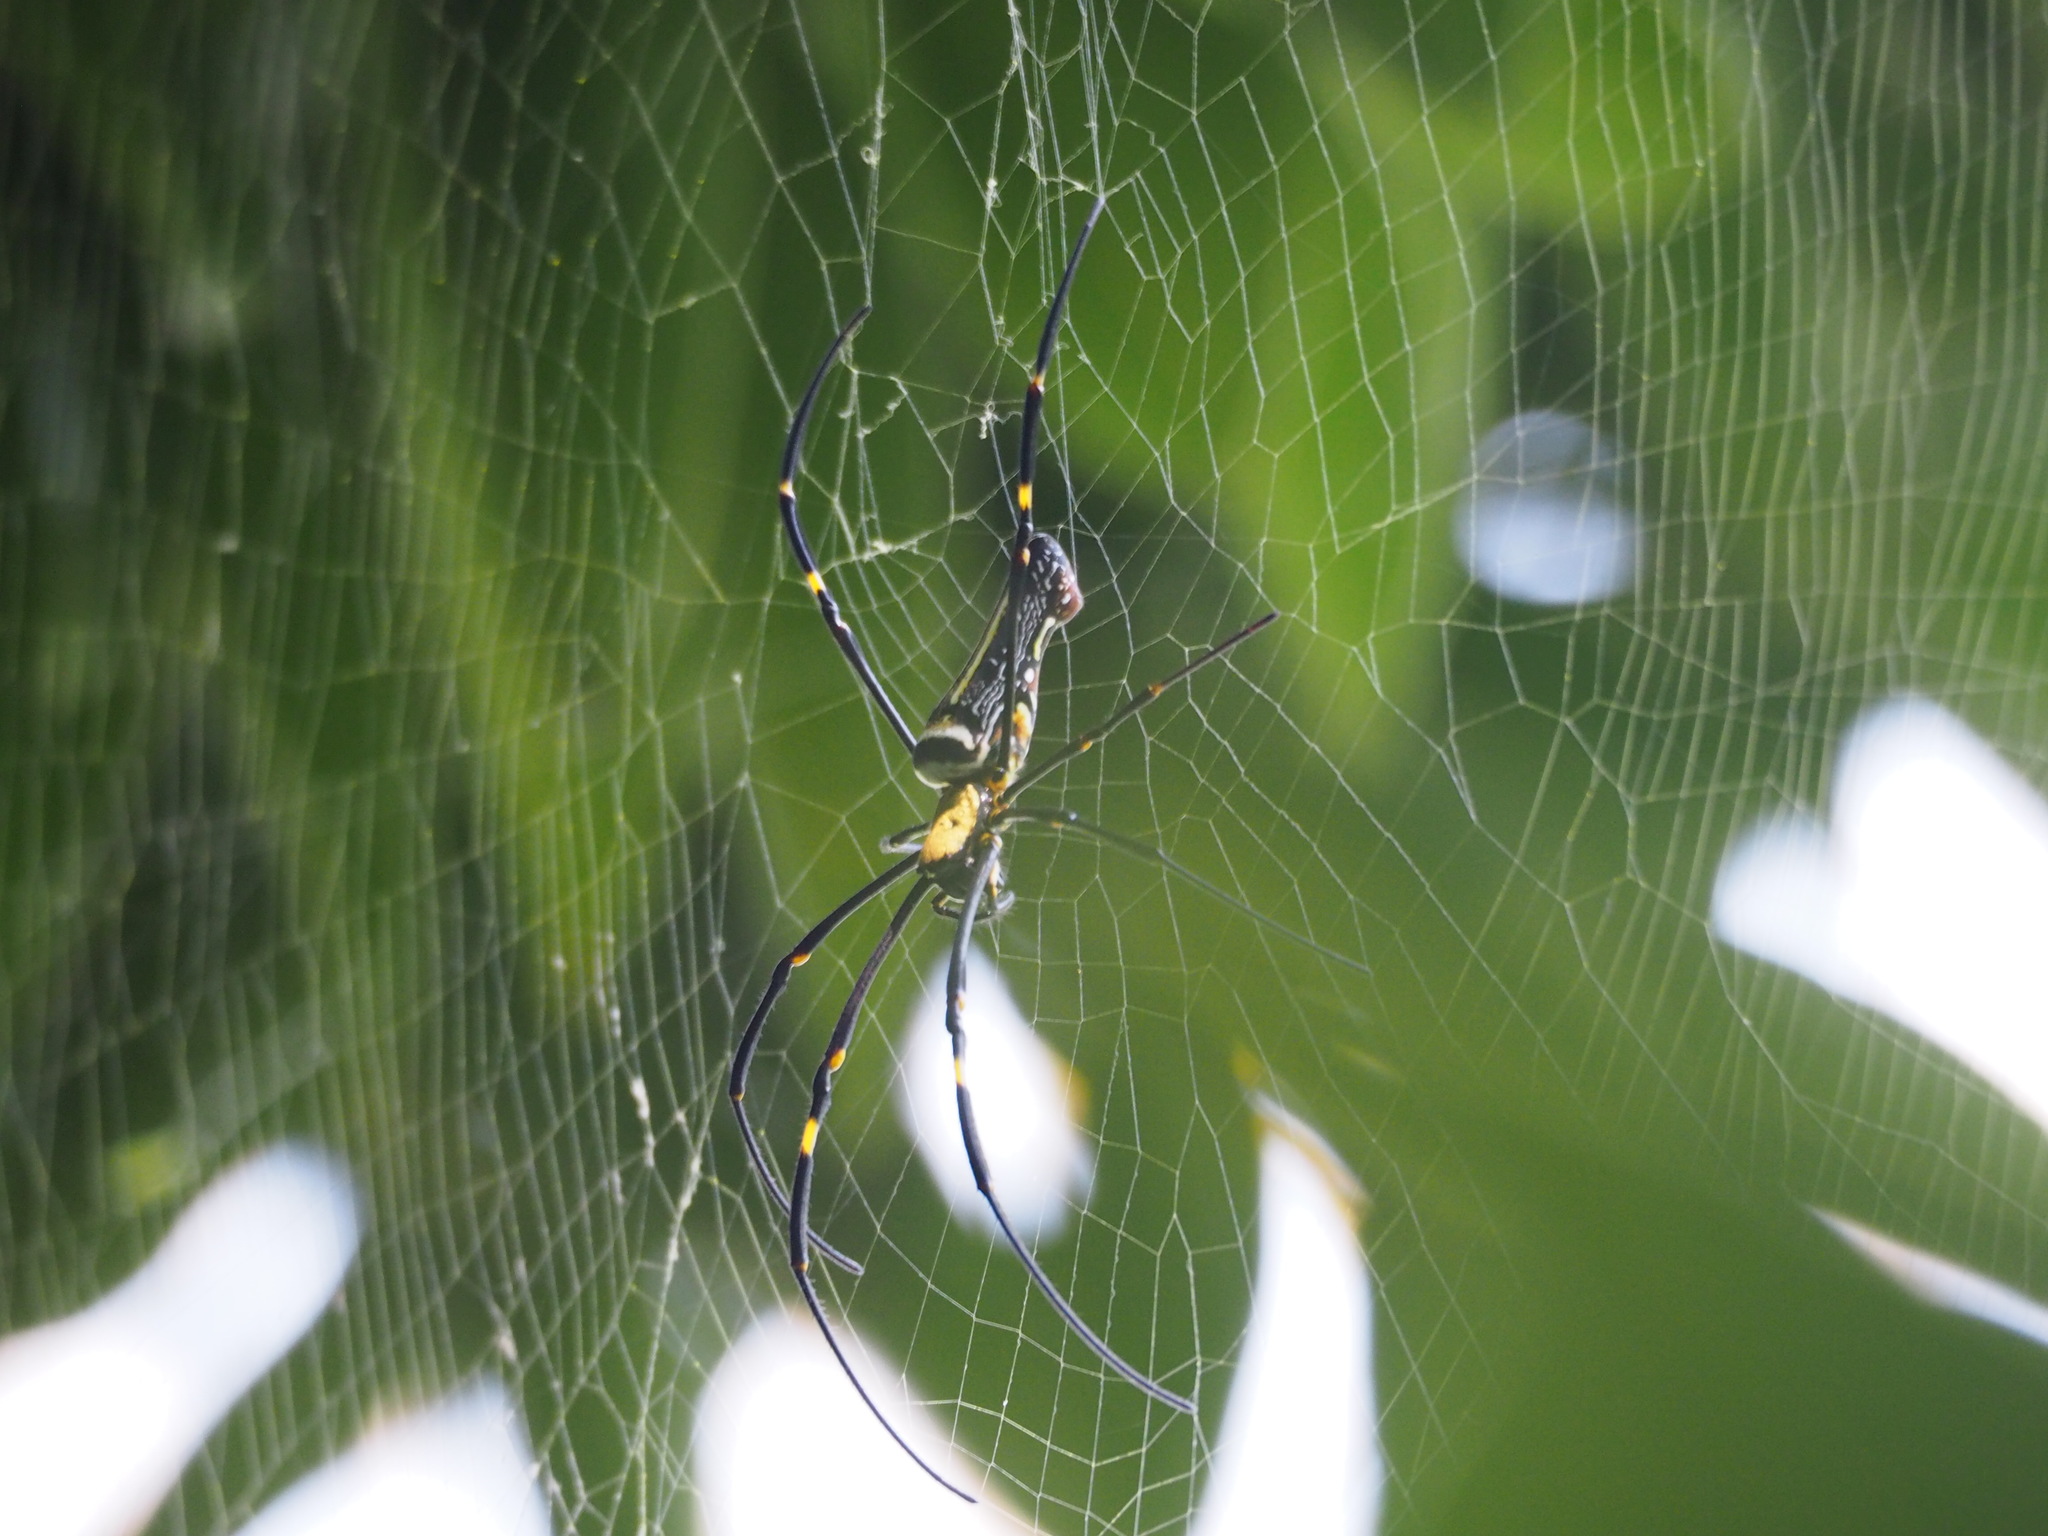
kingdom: Animalia
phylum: Arthropoda
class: Arachnida
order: Araneae
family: Araneidae
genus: Nephila
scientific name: Nephila pilipes
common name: Giant golden orb weaver
